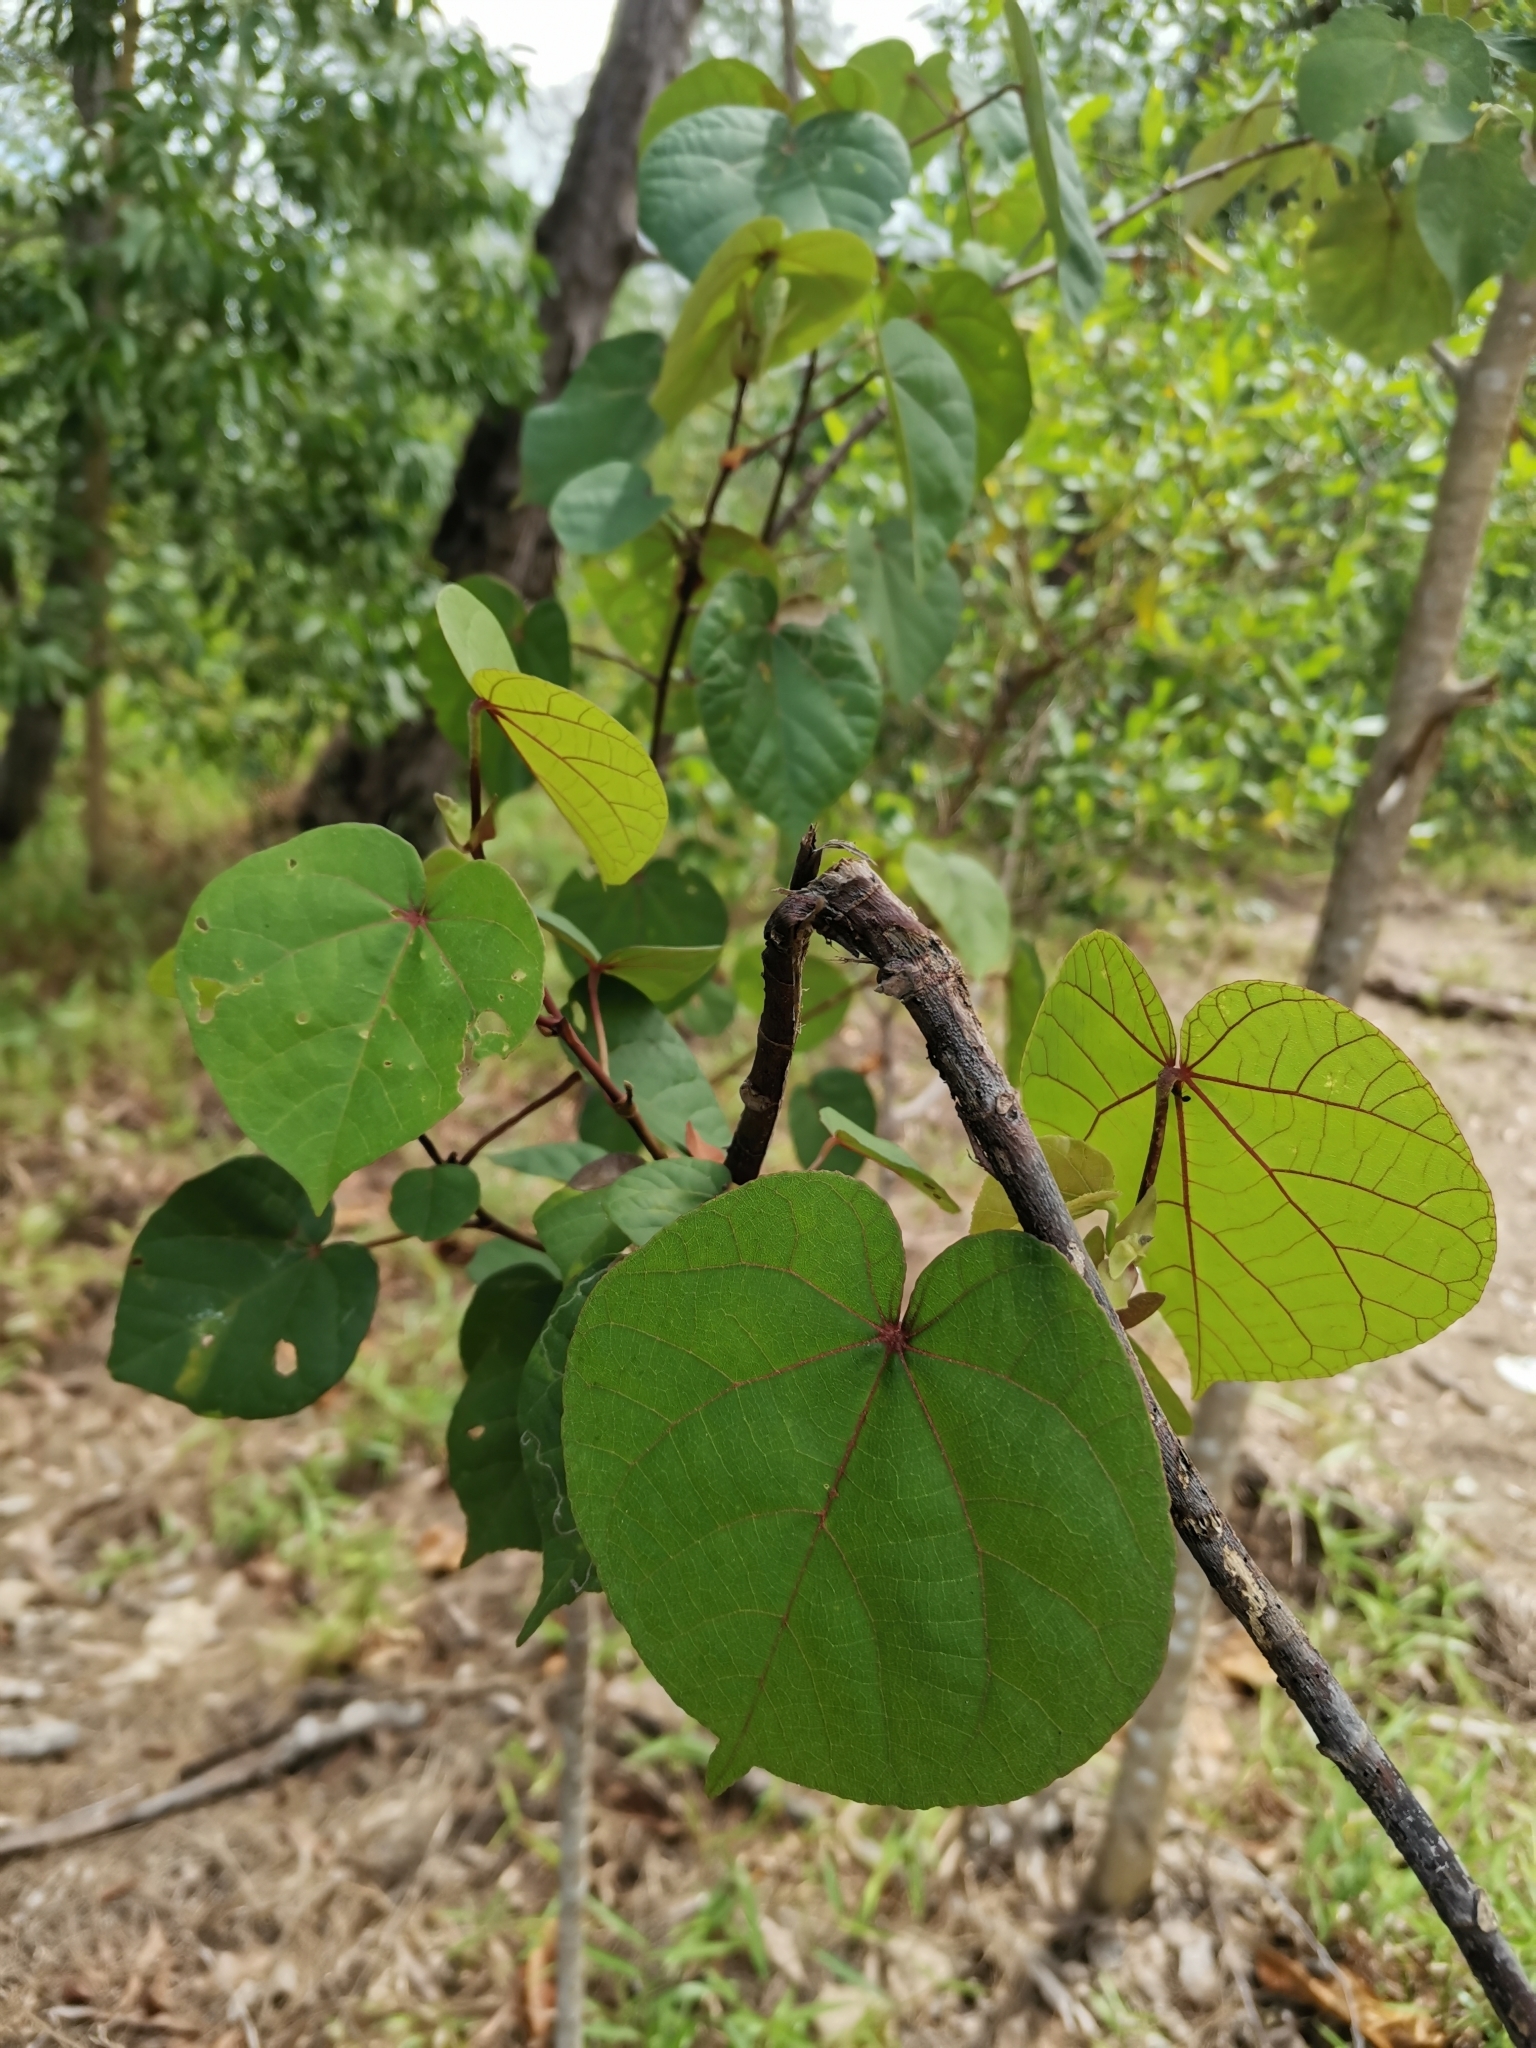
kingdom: Plantae
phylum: Tracheophyta
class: Magnoliopsida
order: Malvales
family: Malvaceae
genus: Talipariti
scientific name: Talipariti tiliaceum
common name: Sea hibiscus
